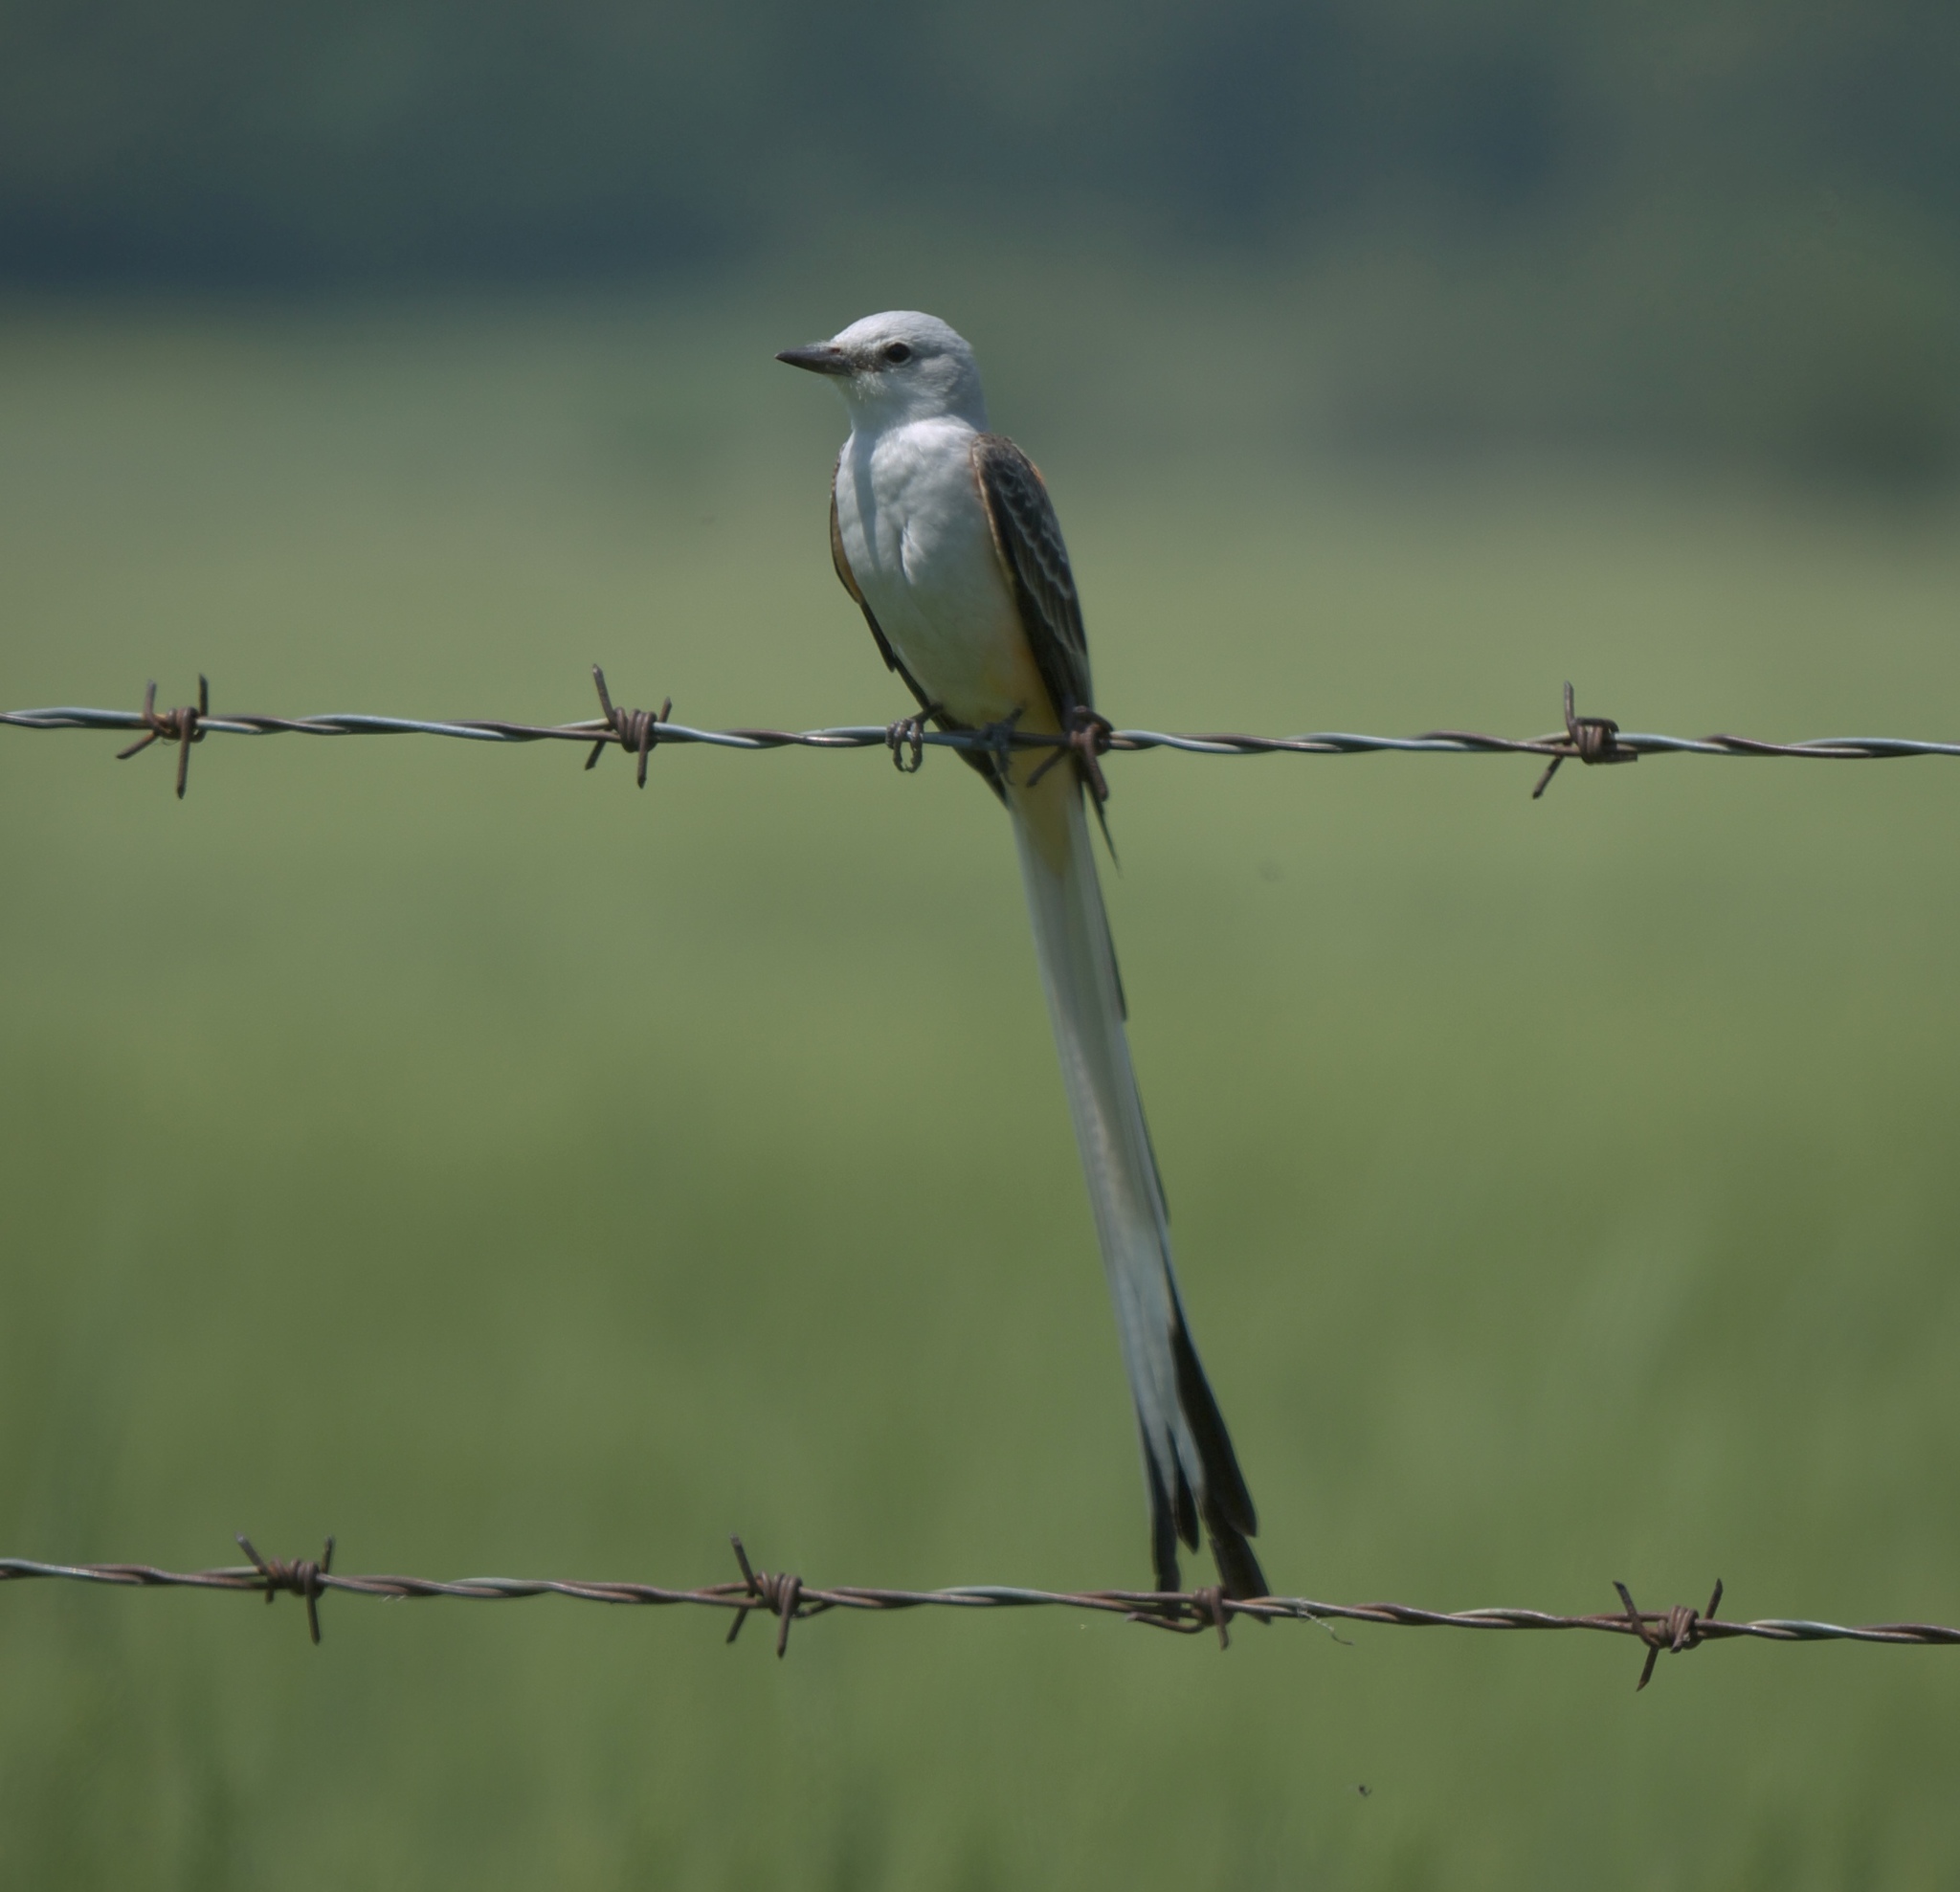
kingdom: Animalia
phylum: Chordata
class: Aves
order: Passeriformes
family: Tyrannidae
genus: Tyrannus
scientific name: Tyrannus forficatus
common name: Scissor-tailed flycatcher
